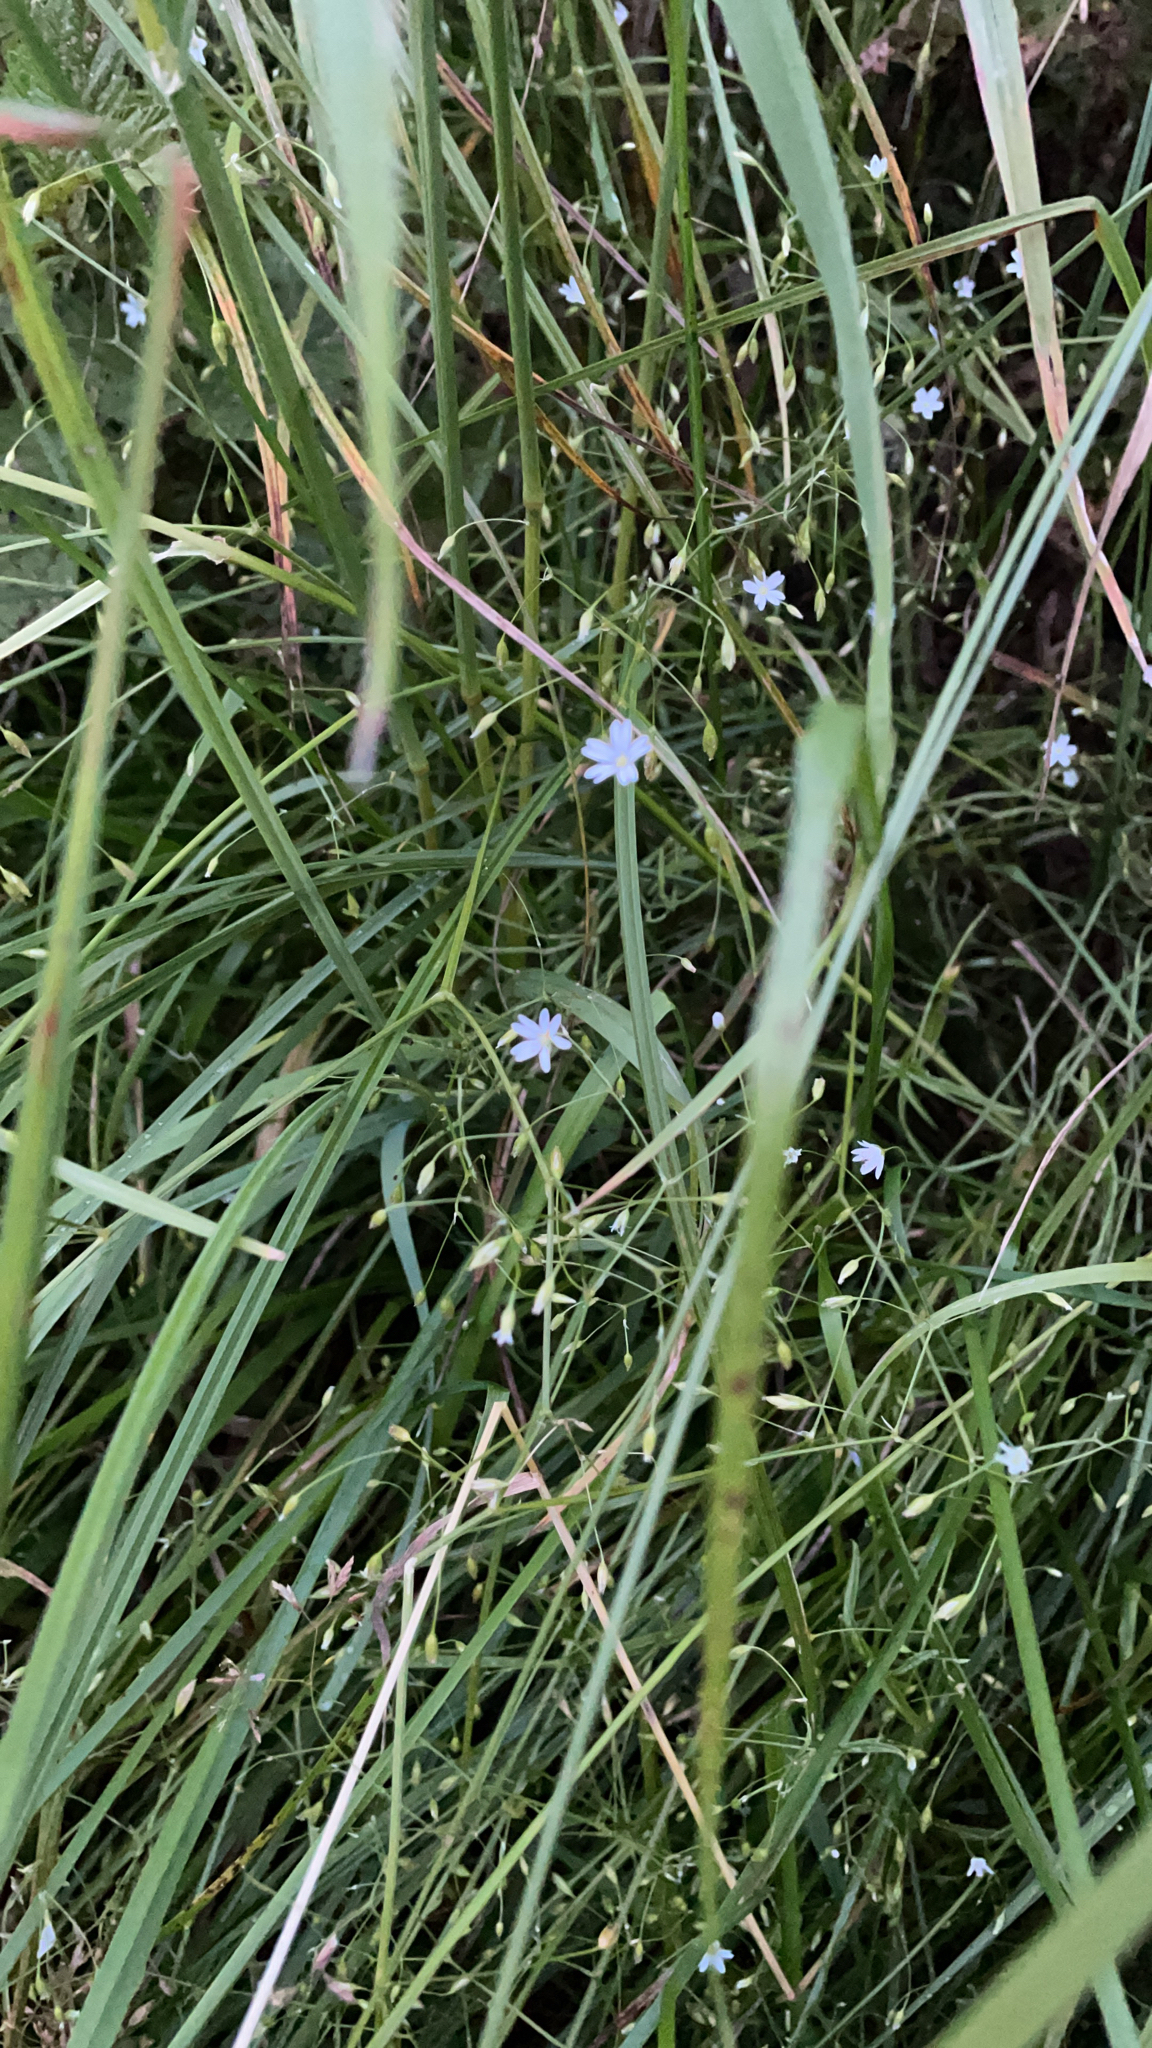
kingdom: Plantae
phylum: Tracheophyta
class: Magnoliopsida
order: Caryophyllales
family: Caryophyllaceae
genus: Stellaria
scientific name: Stellaria graminea
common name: Grass-like starwort
